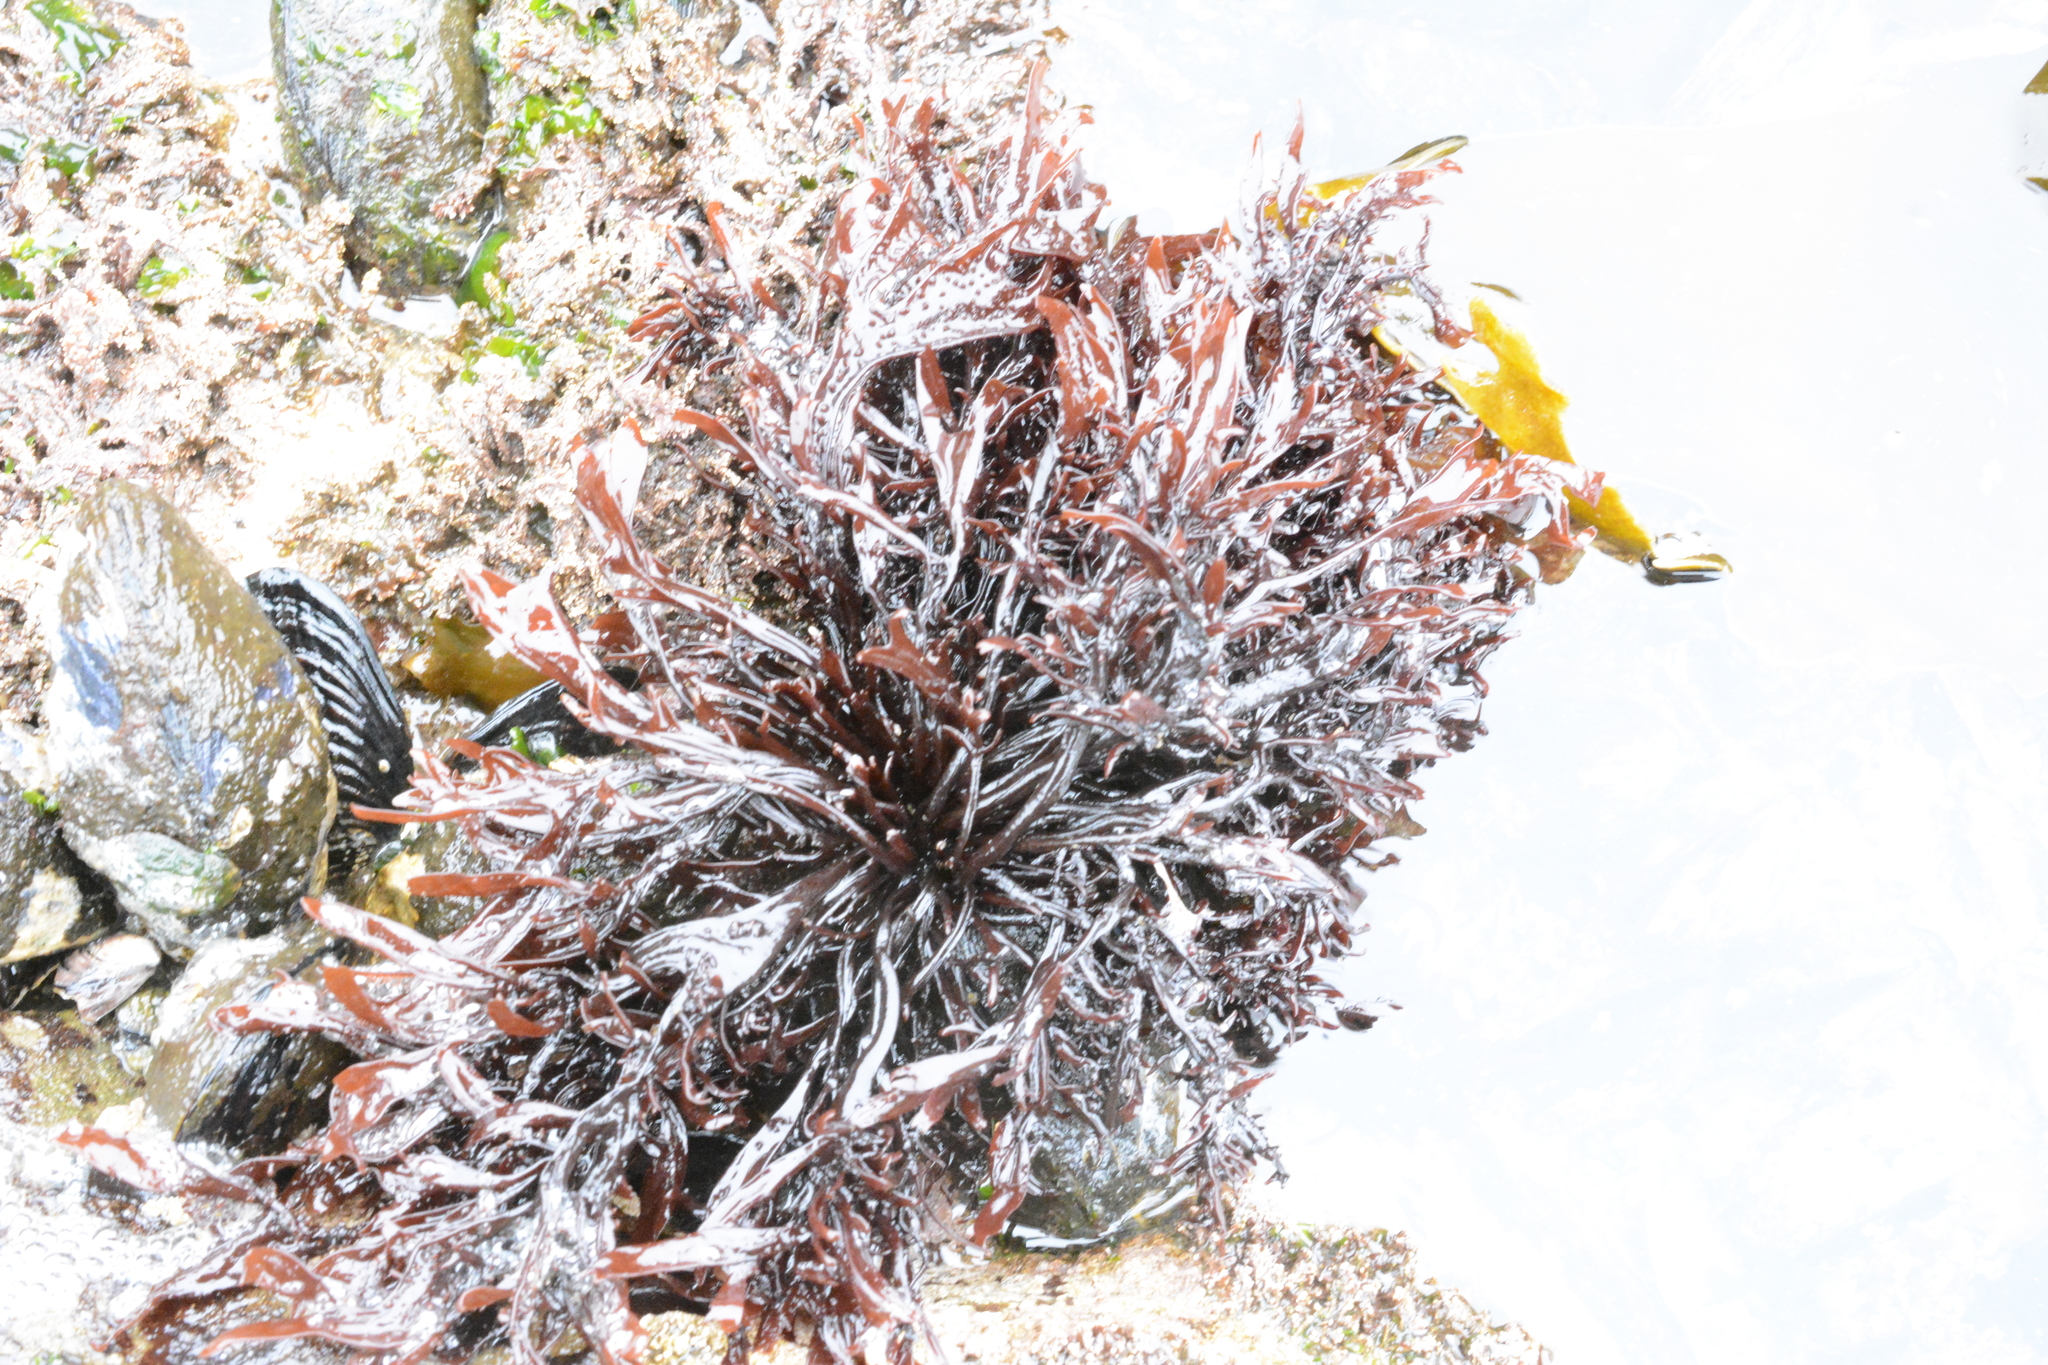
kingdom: Plantae
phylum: Rhodophyta
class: Florideophyceae
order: Gigartinales
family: Phyllophoraceae
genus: Mastocarpus
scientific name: Mastocarpus jardinii
